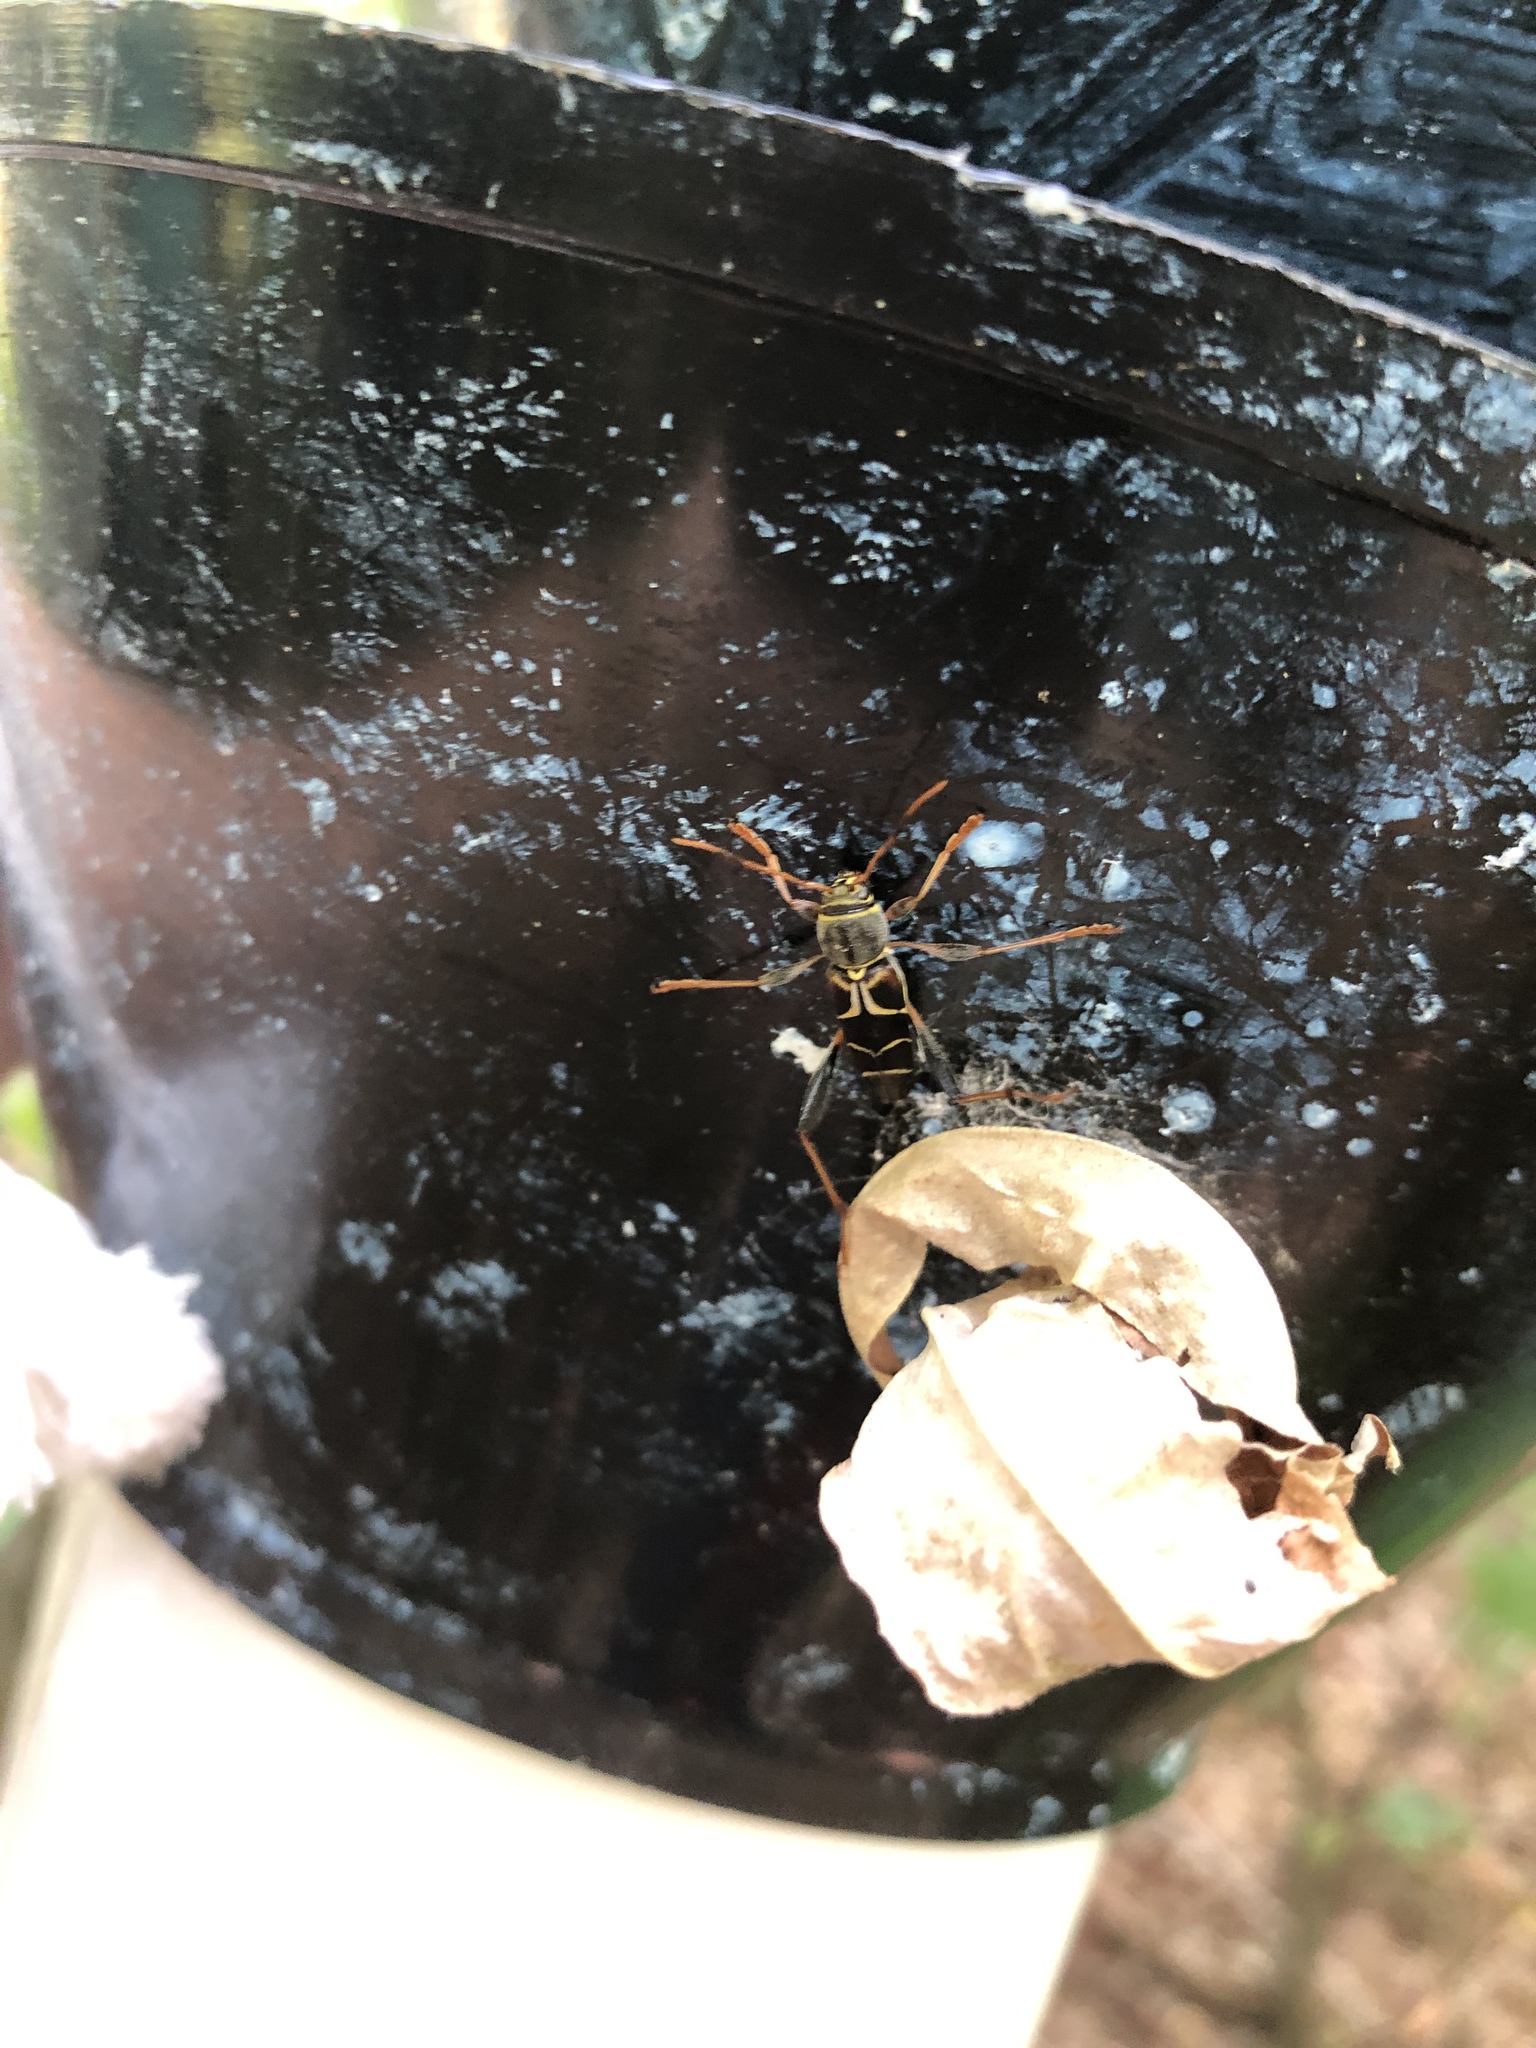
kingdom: Animalia
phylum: Arthropoda
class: Insecta
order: Coleoptera
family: Cerambycidae
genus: Neoclytus
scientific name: Neoclytus mucronatus
